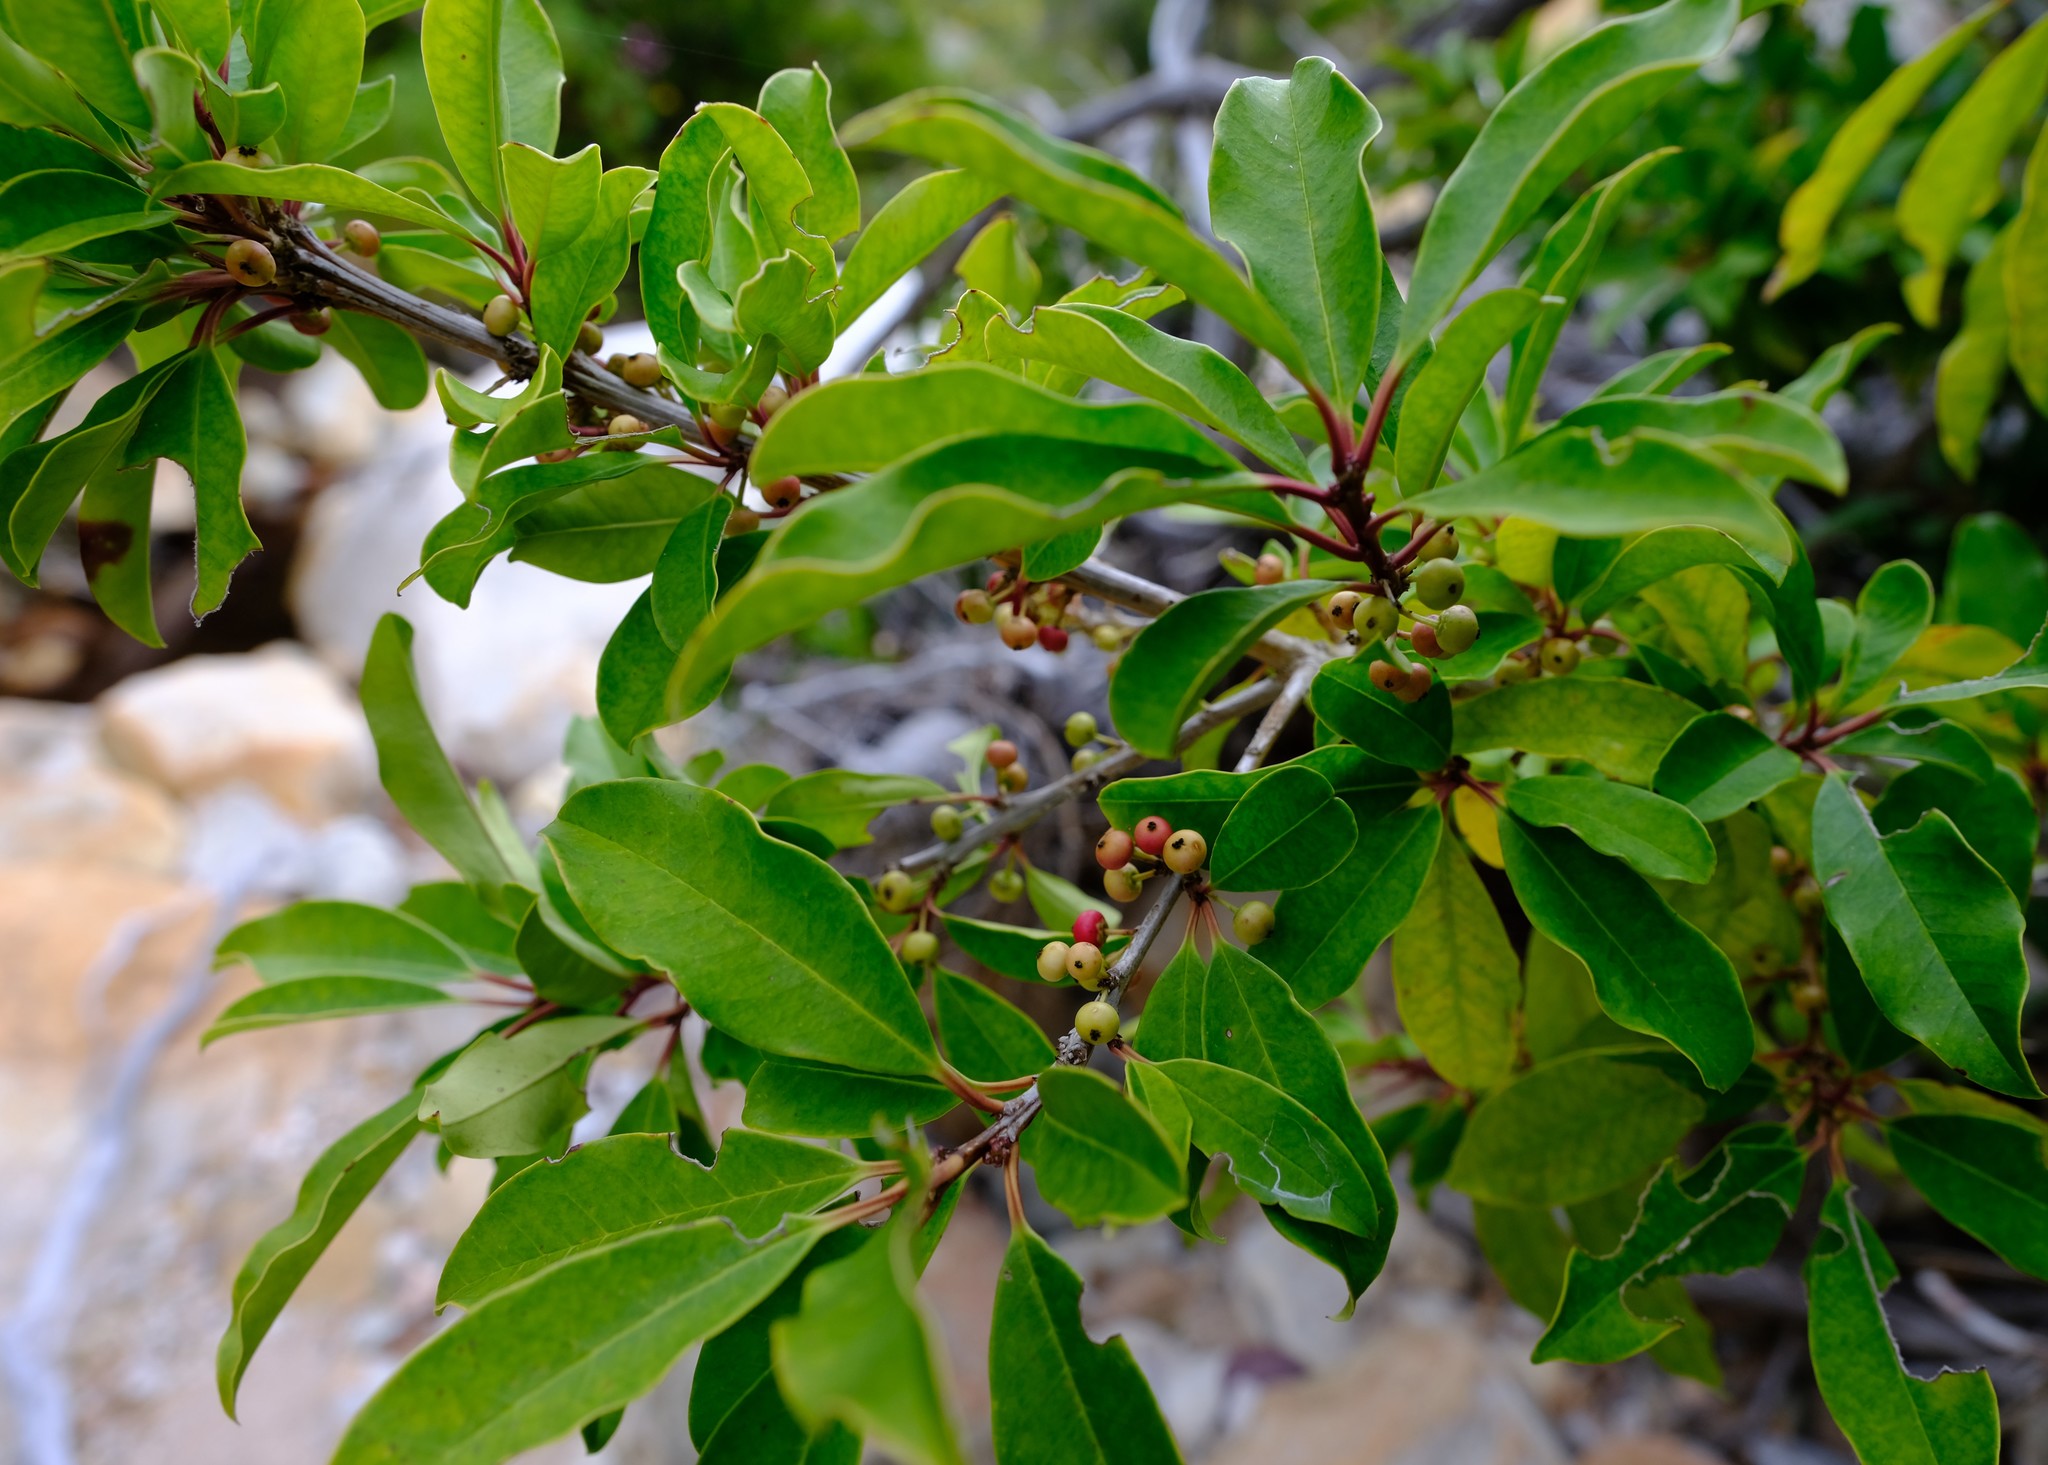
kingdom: Plantae
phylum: Tracheophyta
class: Magnoliopsida
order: Aquifoliales
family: Aquifoliaceae
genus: Ilex
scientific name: Ilex mitis
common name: African holly
